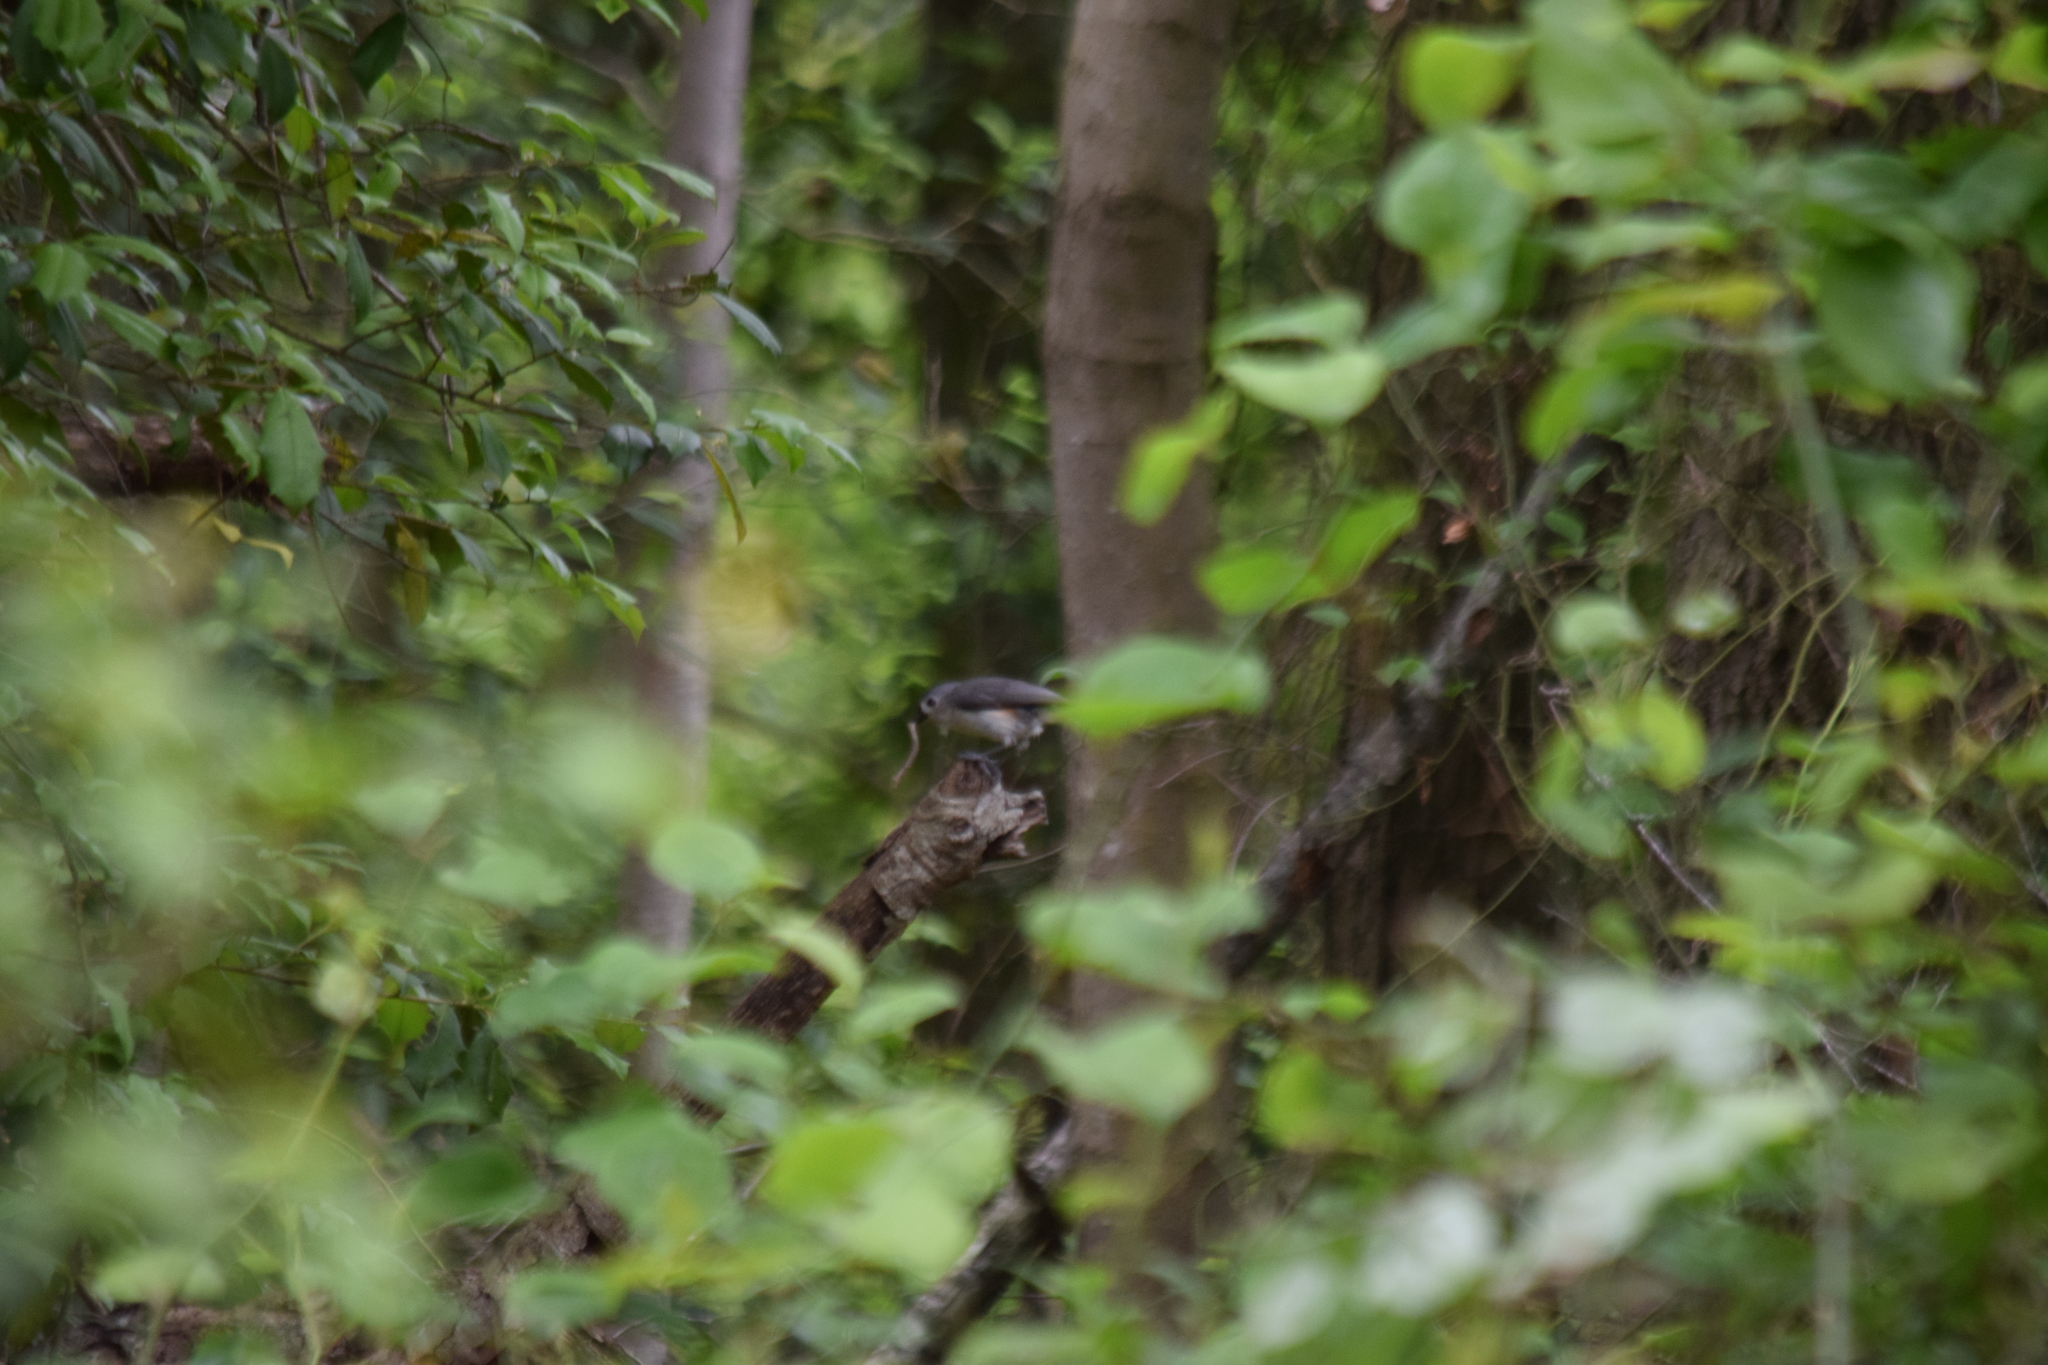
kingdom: Animalia
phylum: Chordata
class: Aves
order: Passeriformes
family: Paridae
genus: Baeolophus
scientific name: Baeolophus bicolor
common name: Tufted titmouse
